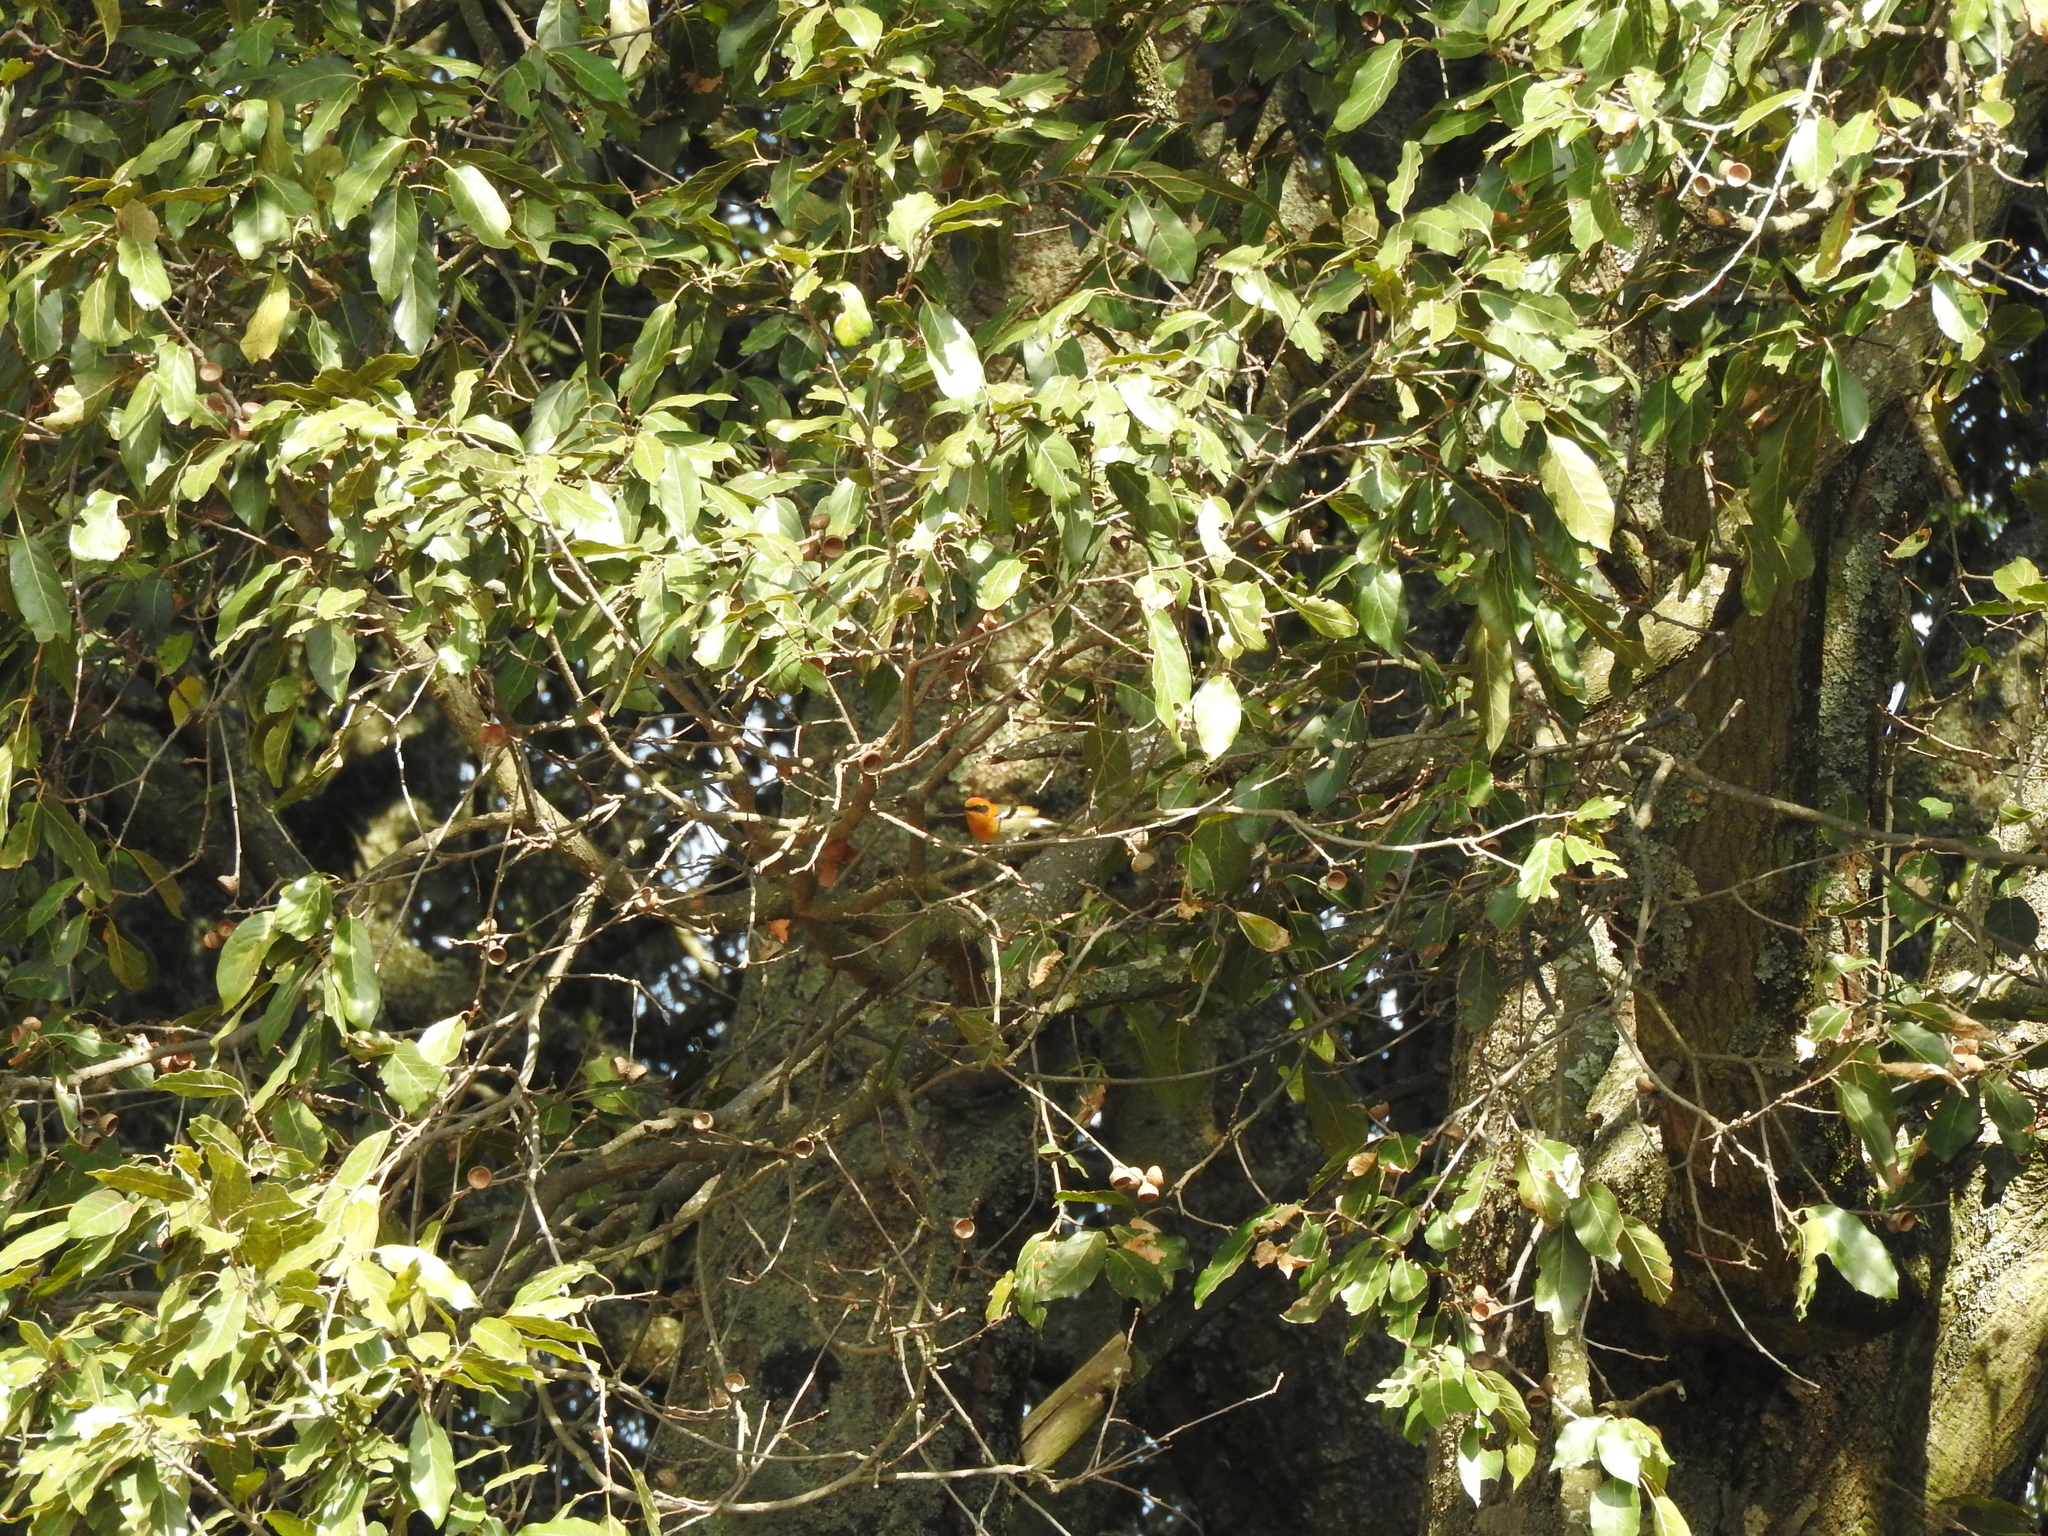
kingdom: Animalia
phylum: Chordata
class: Aves
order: Passeriformes
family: Peucedramidae
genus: Peucedramus
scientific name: Peucedramus taeniatus
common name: Olive warbler
